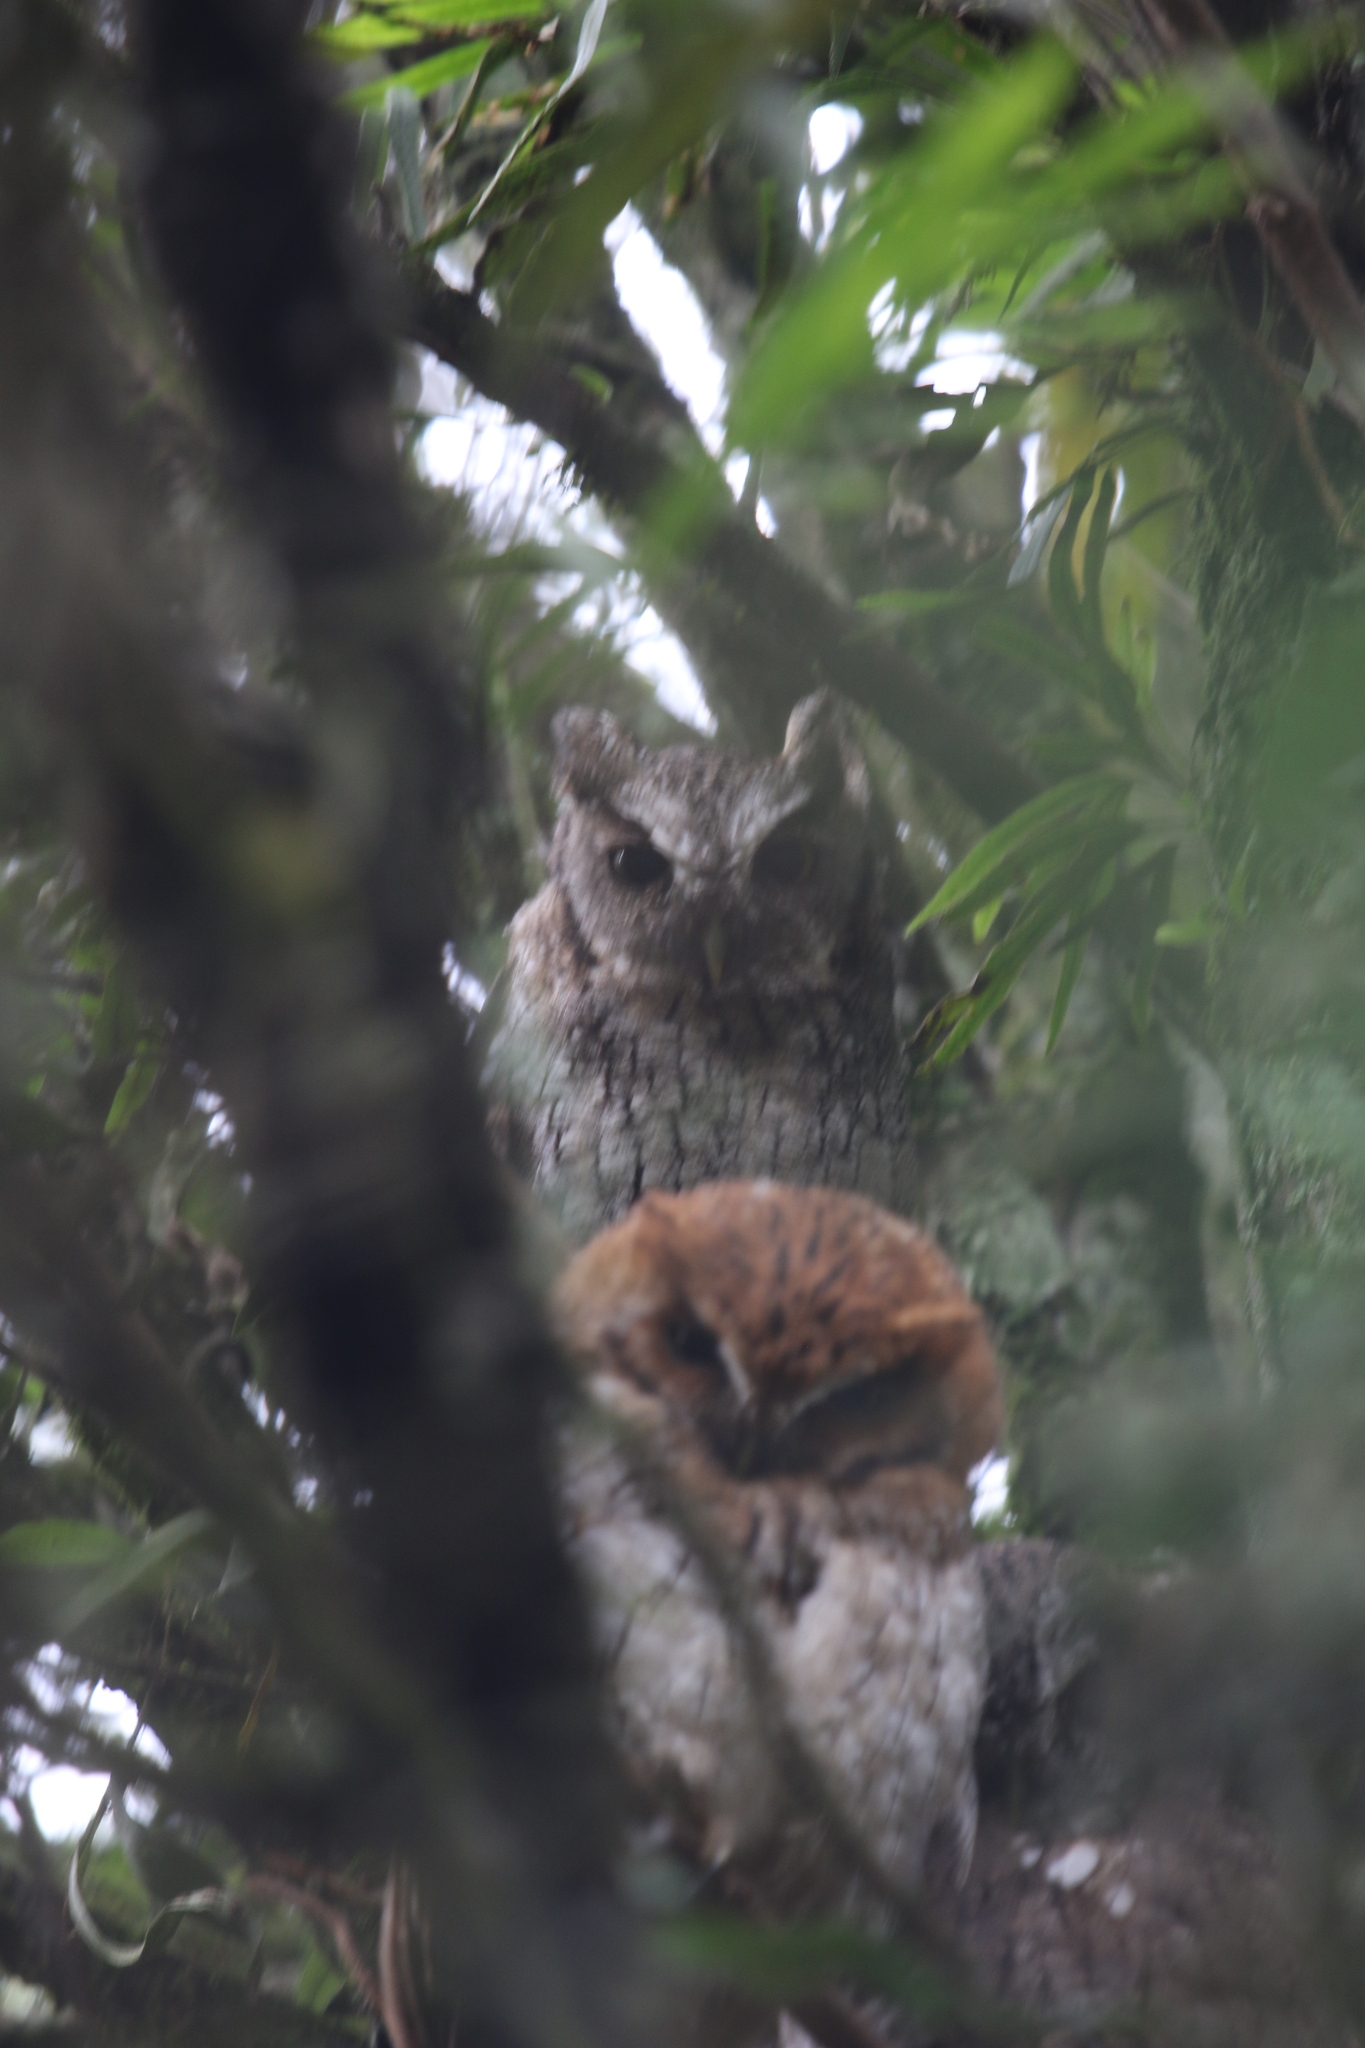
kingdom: Animalia
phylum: Chordata
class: Aves
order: Strigiformes
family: Strigidae
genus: Megascops
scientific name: Megascops choliba
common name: Tropical screech-owl
